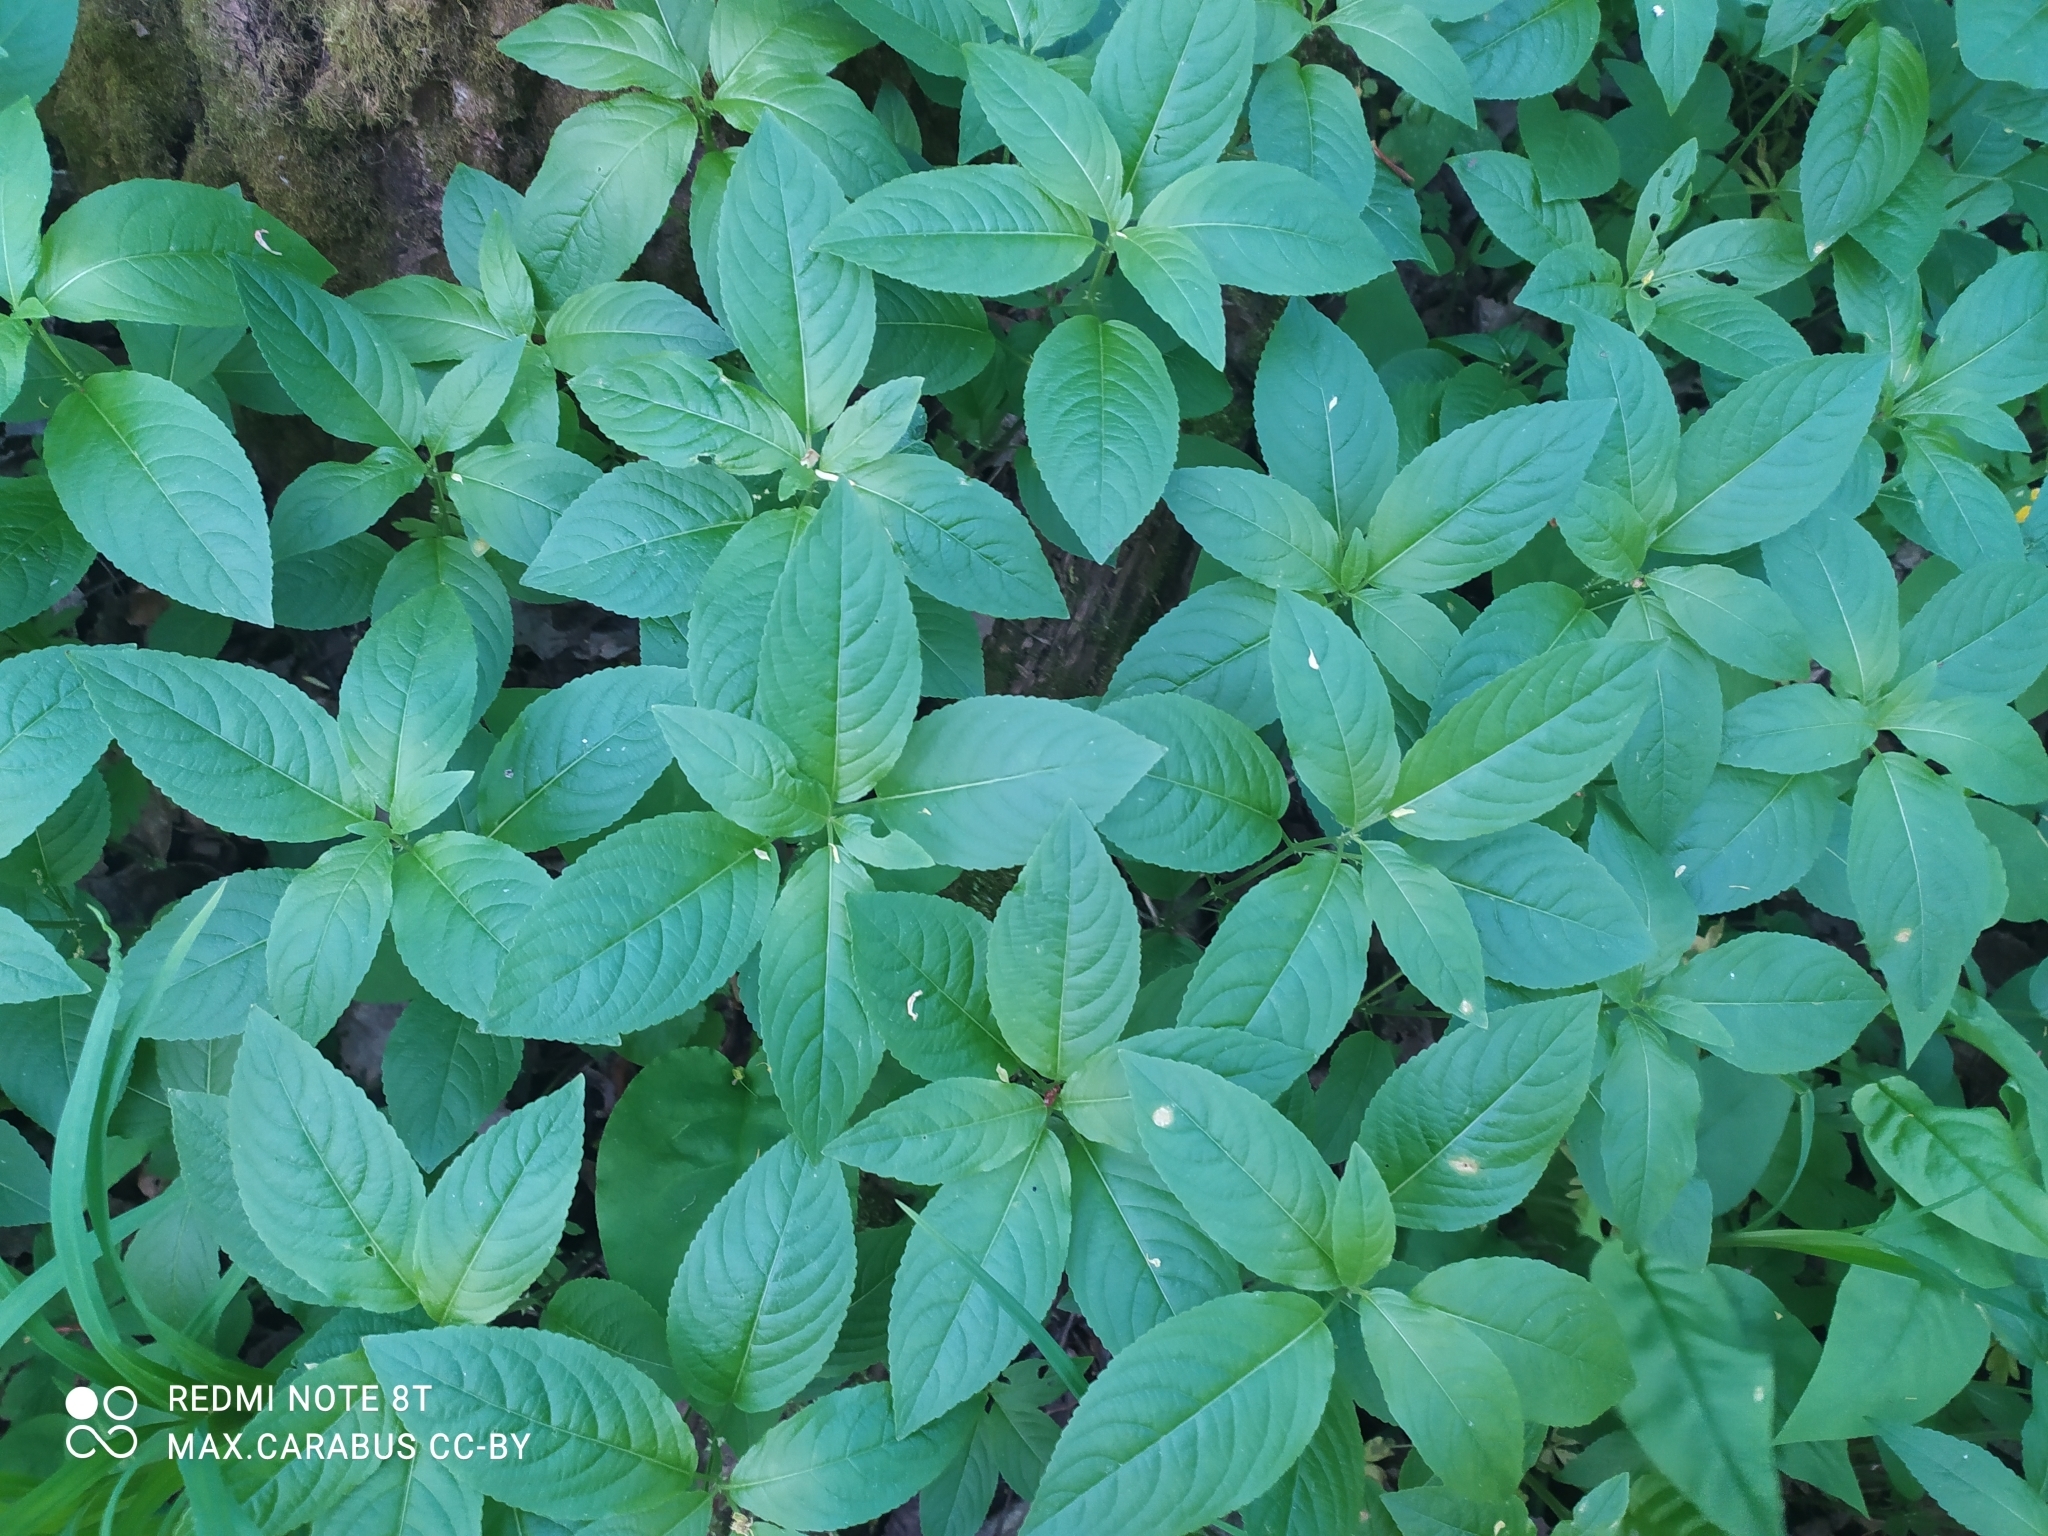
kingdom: Plantae
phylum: Tracheophyta
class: Magnoliopsida
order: Malpighiales
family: Euphorbiaceae
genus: Mercurialis
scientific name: Mercurialis perennis
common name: Dog mercury
